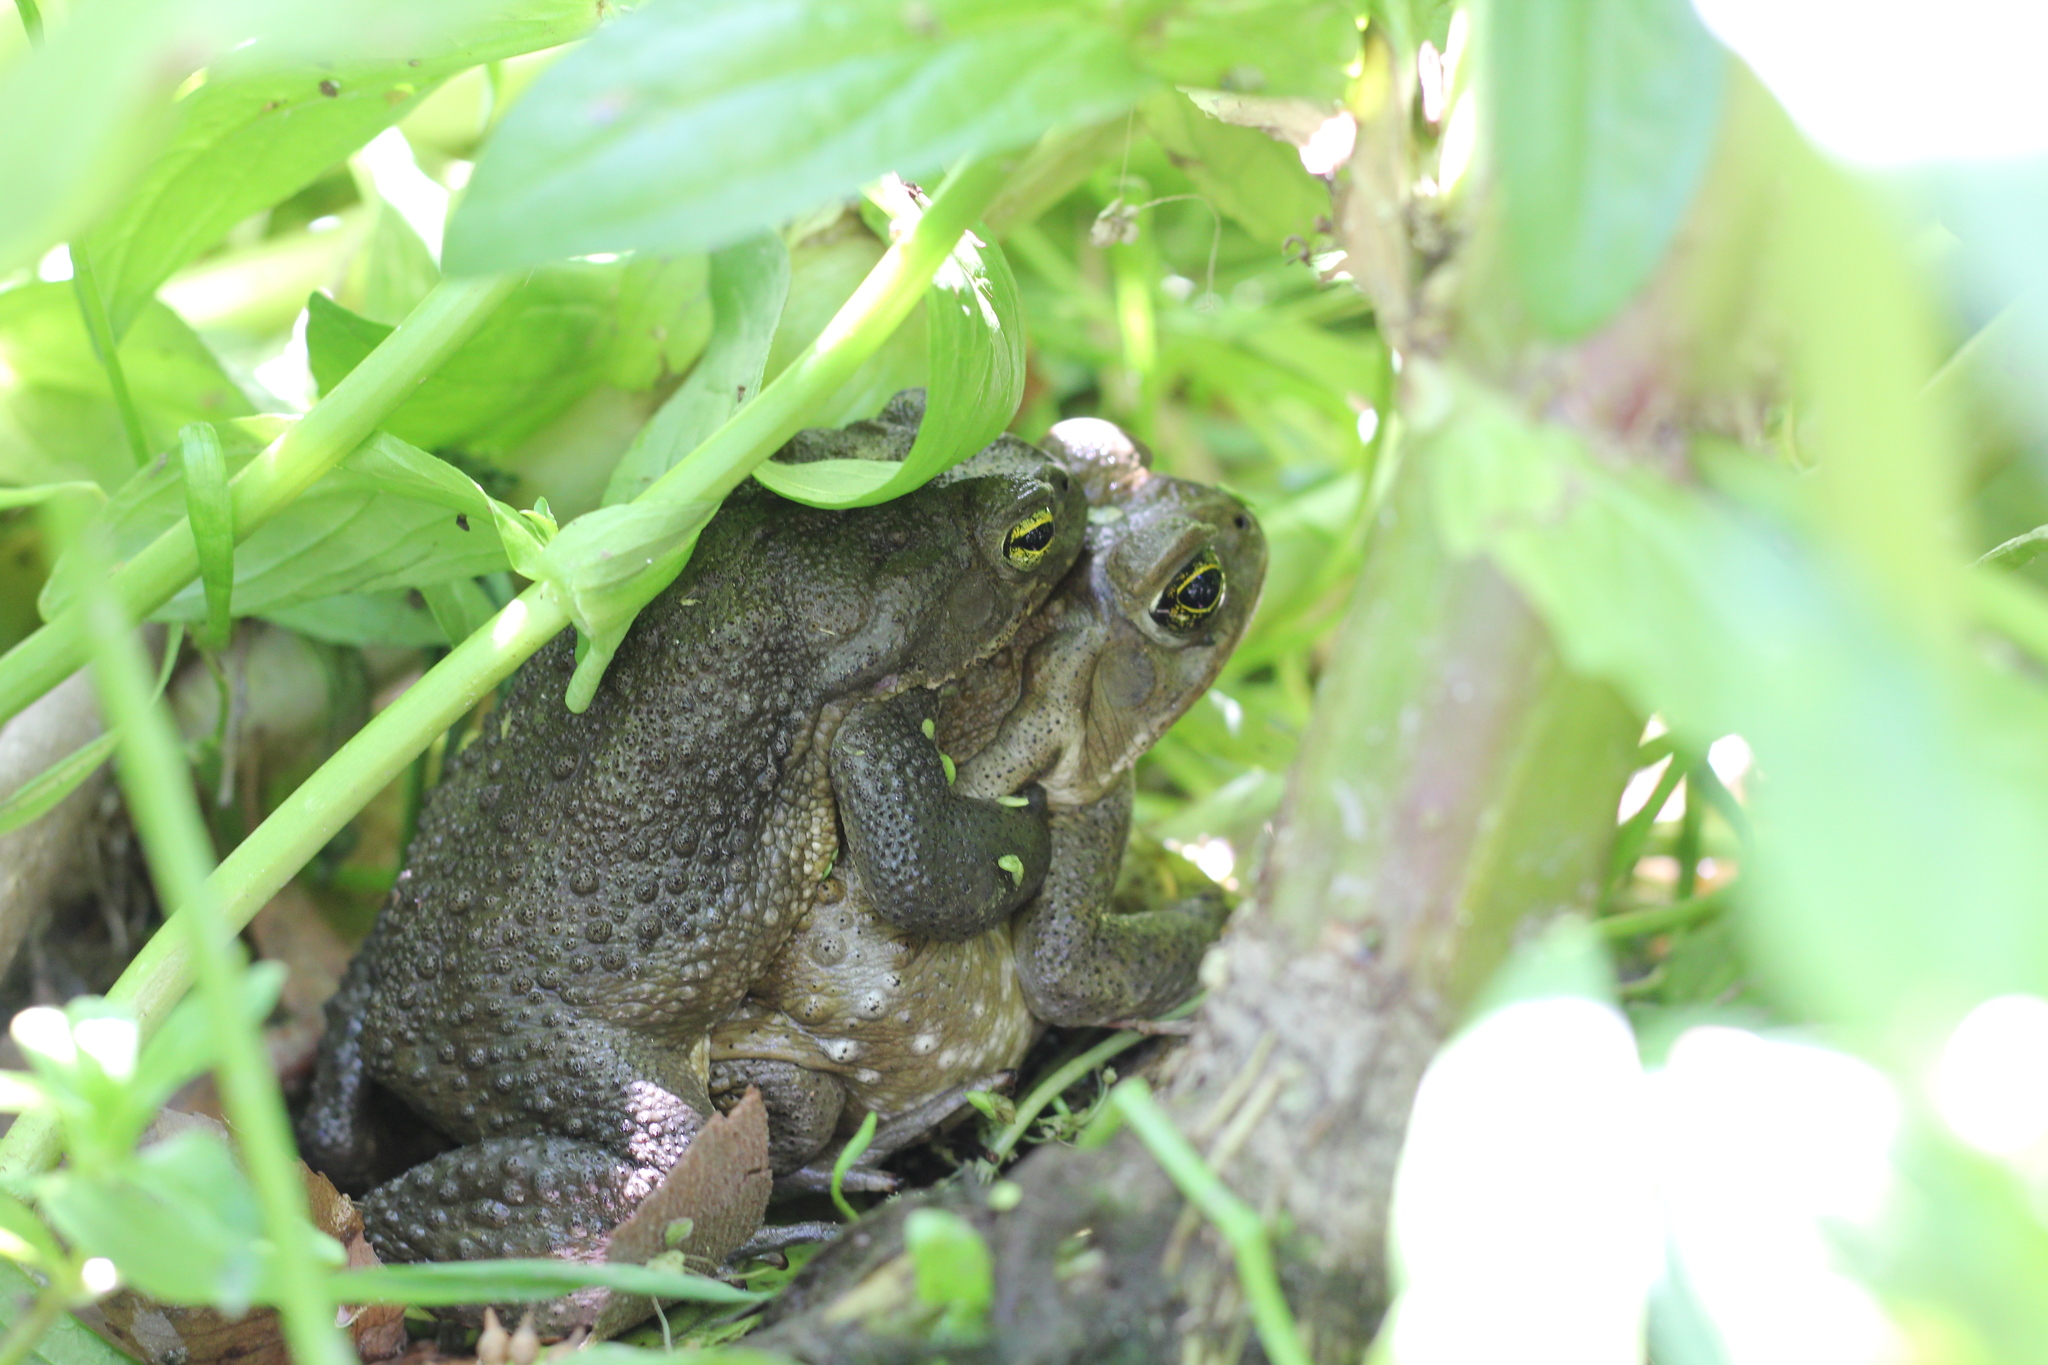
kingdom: Animalia
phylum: Chordata
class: Amphibia
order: Anura
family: Bufonidae
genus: Rhinella
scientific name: Rhinella arenarum
